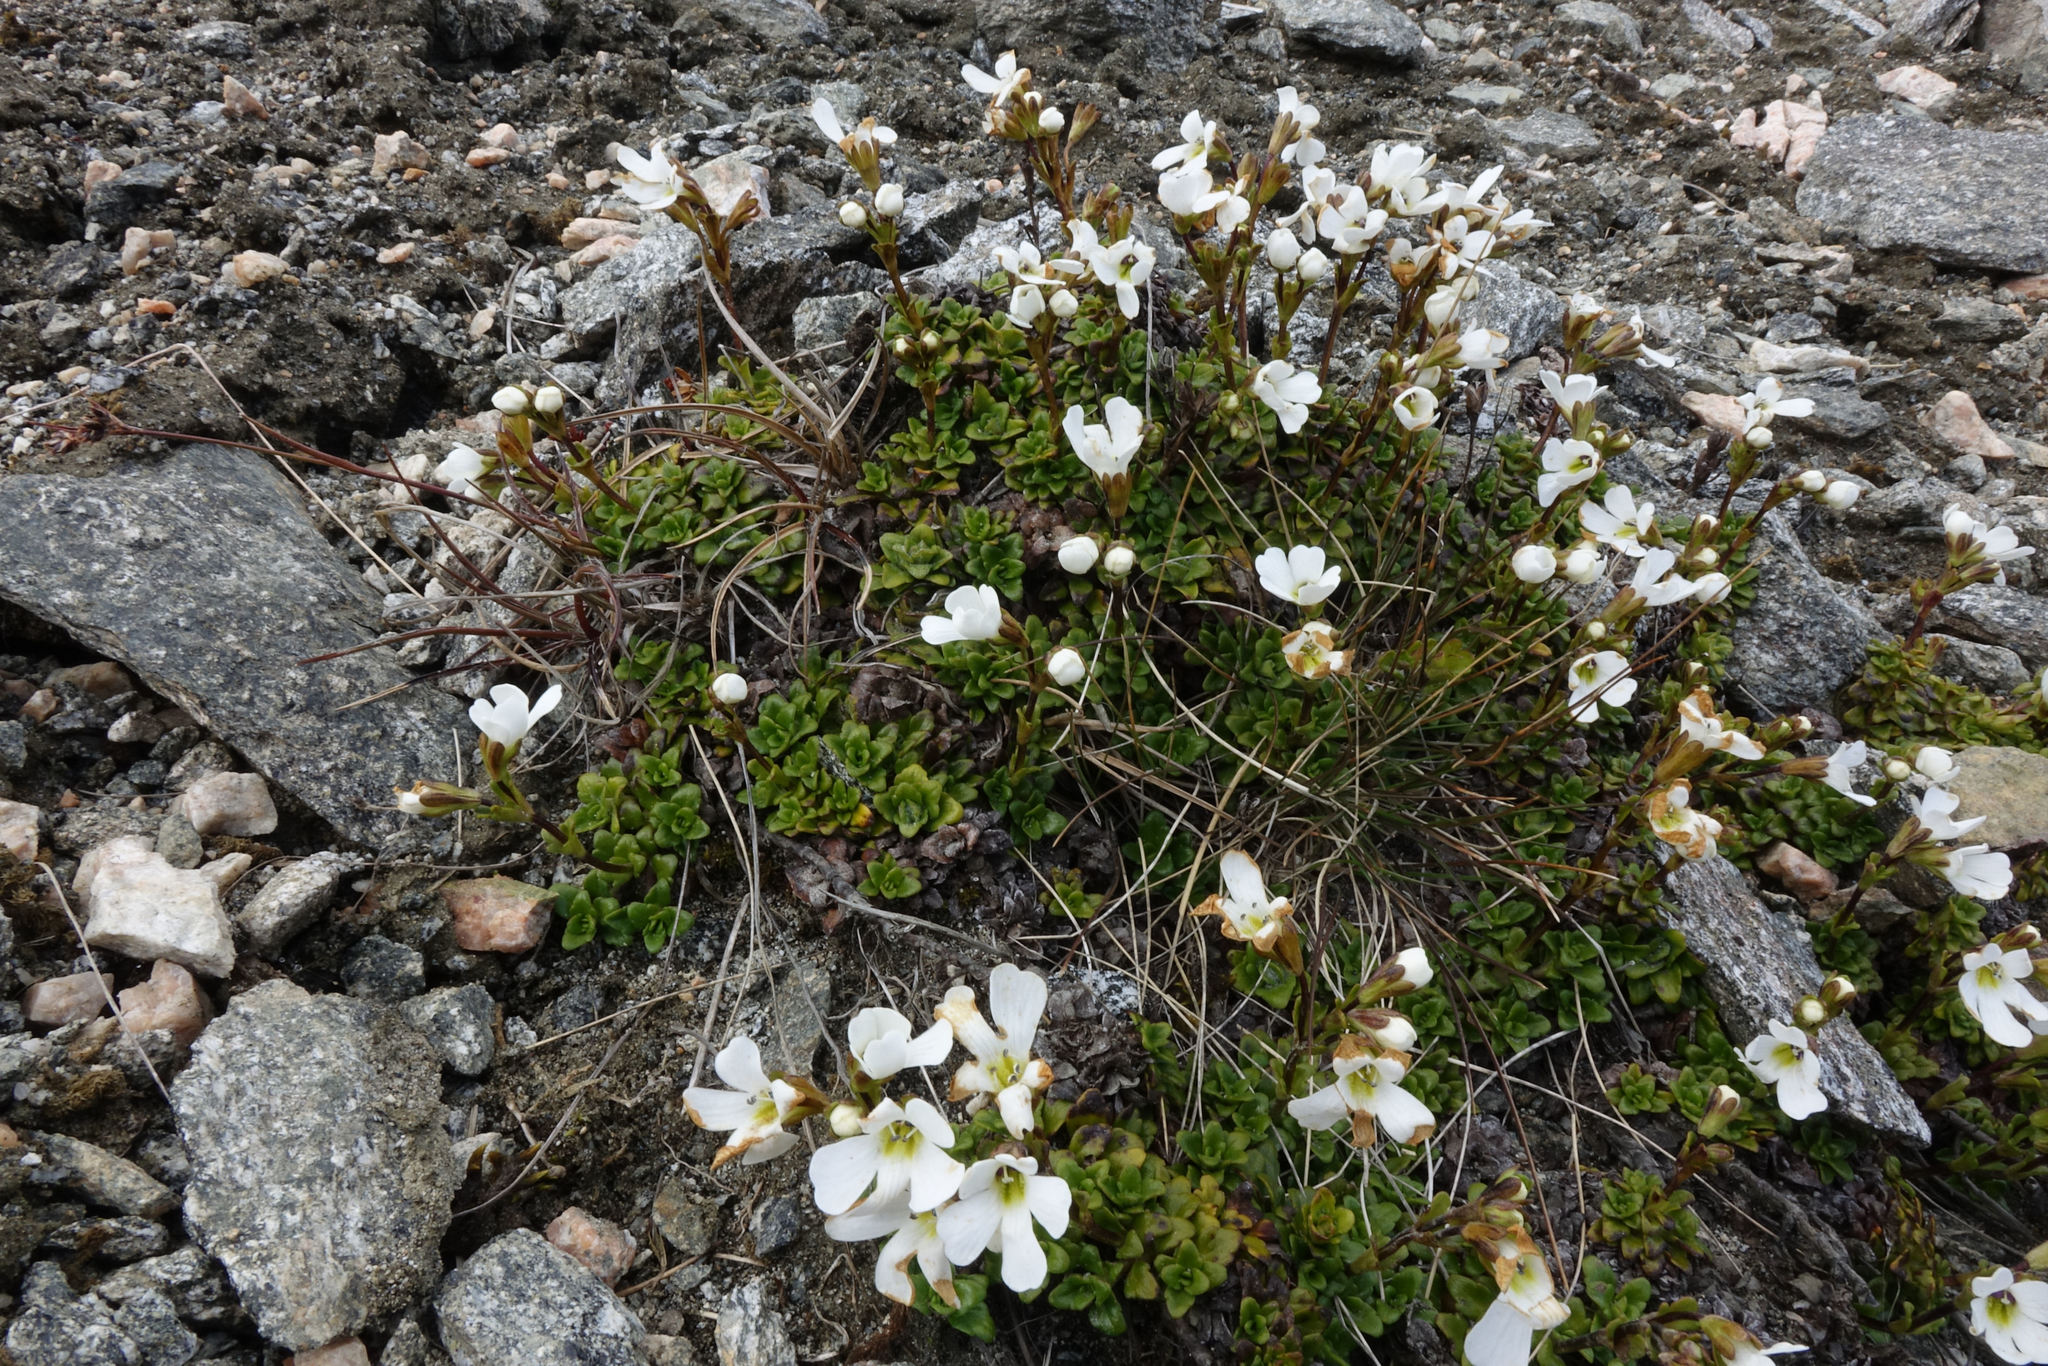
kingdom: Plantae
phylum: Tracheophyta
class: Magnoliopsida
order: Lamiales
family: Plantaginaceae
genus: Ourisia
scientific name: Ourisia caespitosa
